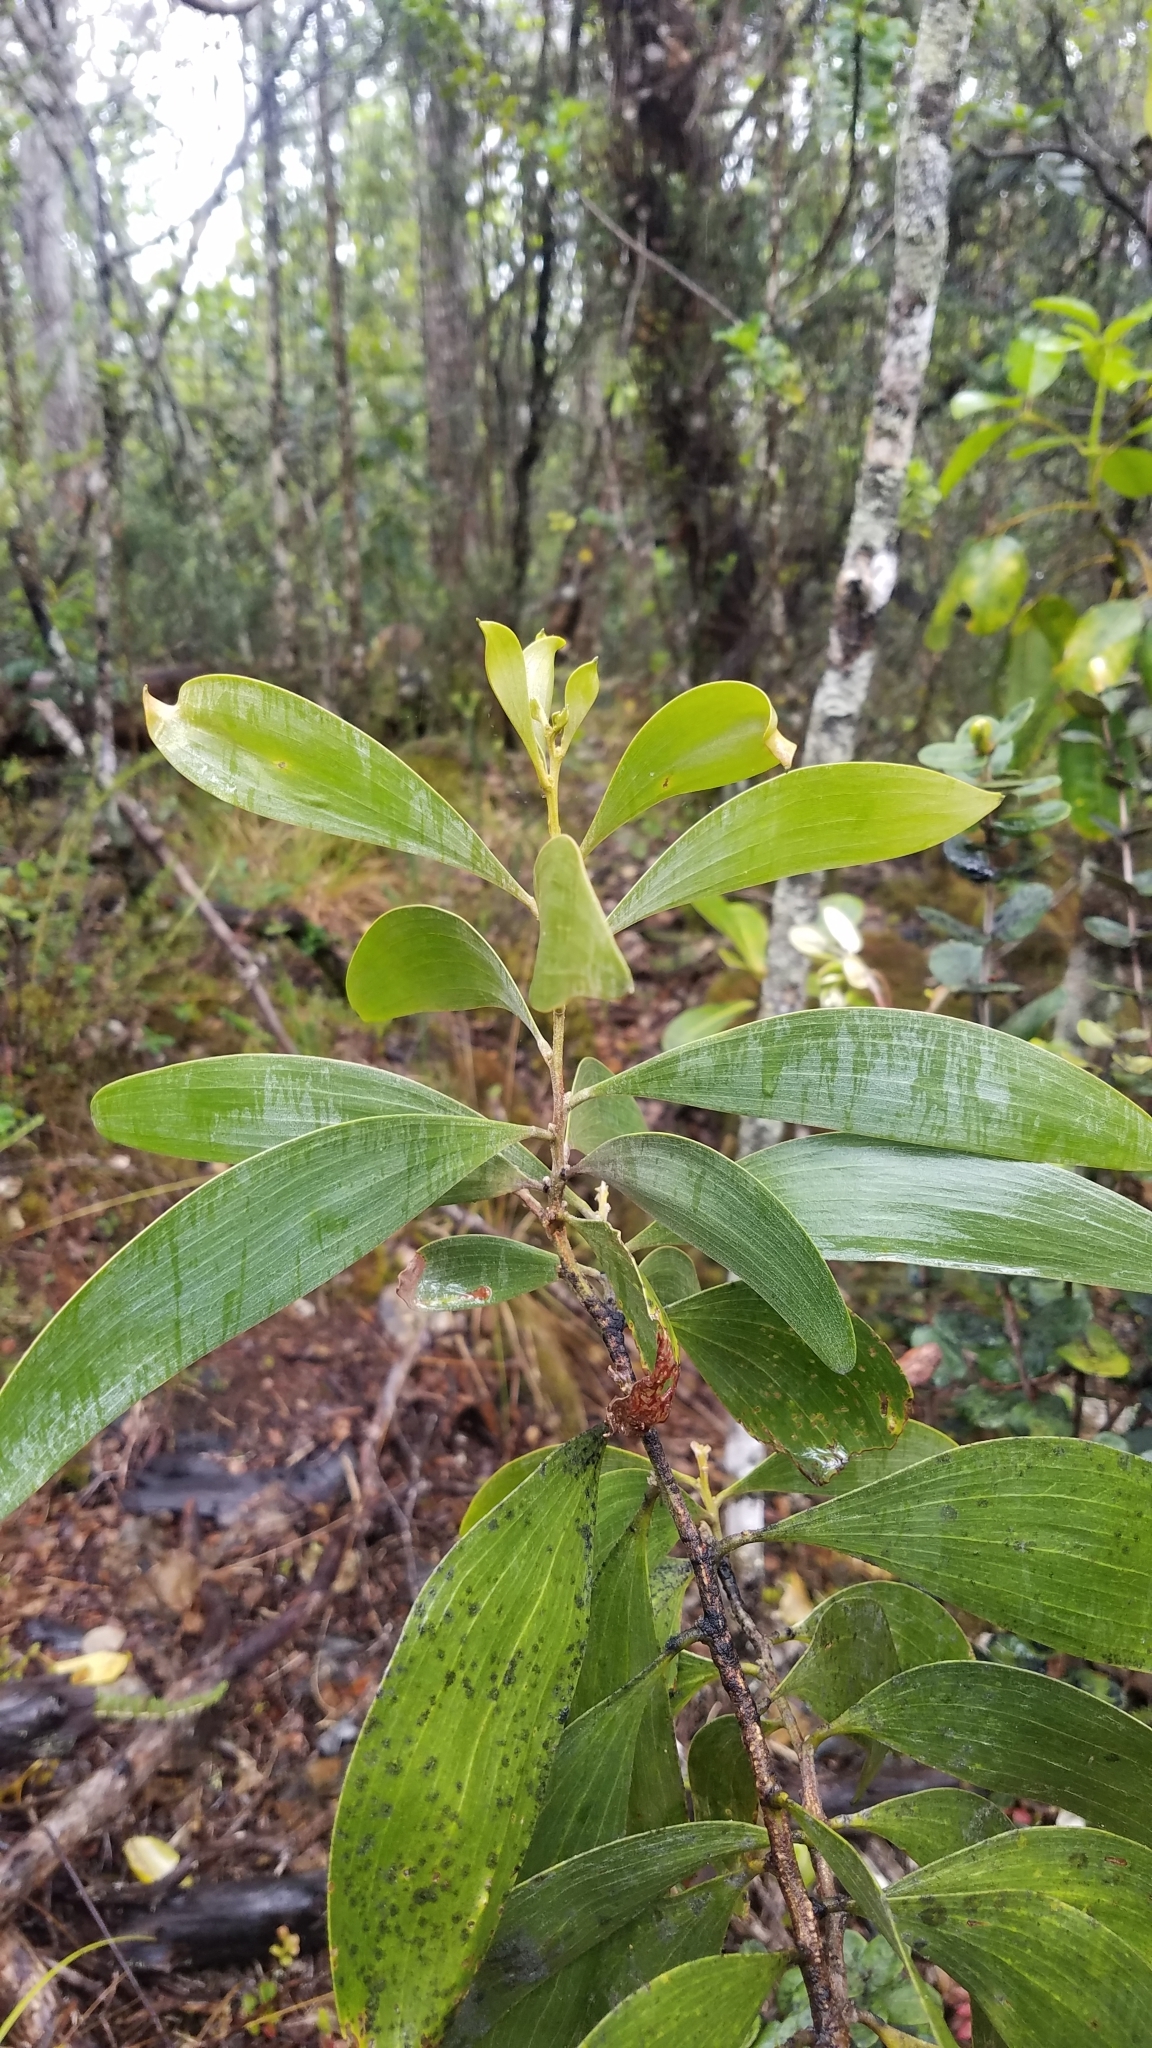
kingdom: Plantae
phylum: Tracheophyta
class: Magnoliopsida
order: Fabales
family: Fabaceae
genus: Acacia
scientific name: Acacia koa
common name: Gray koa
